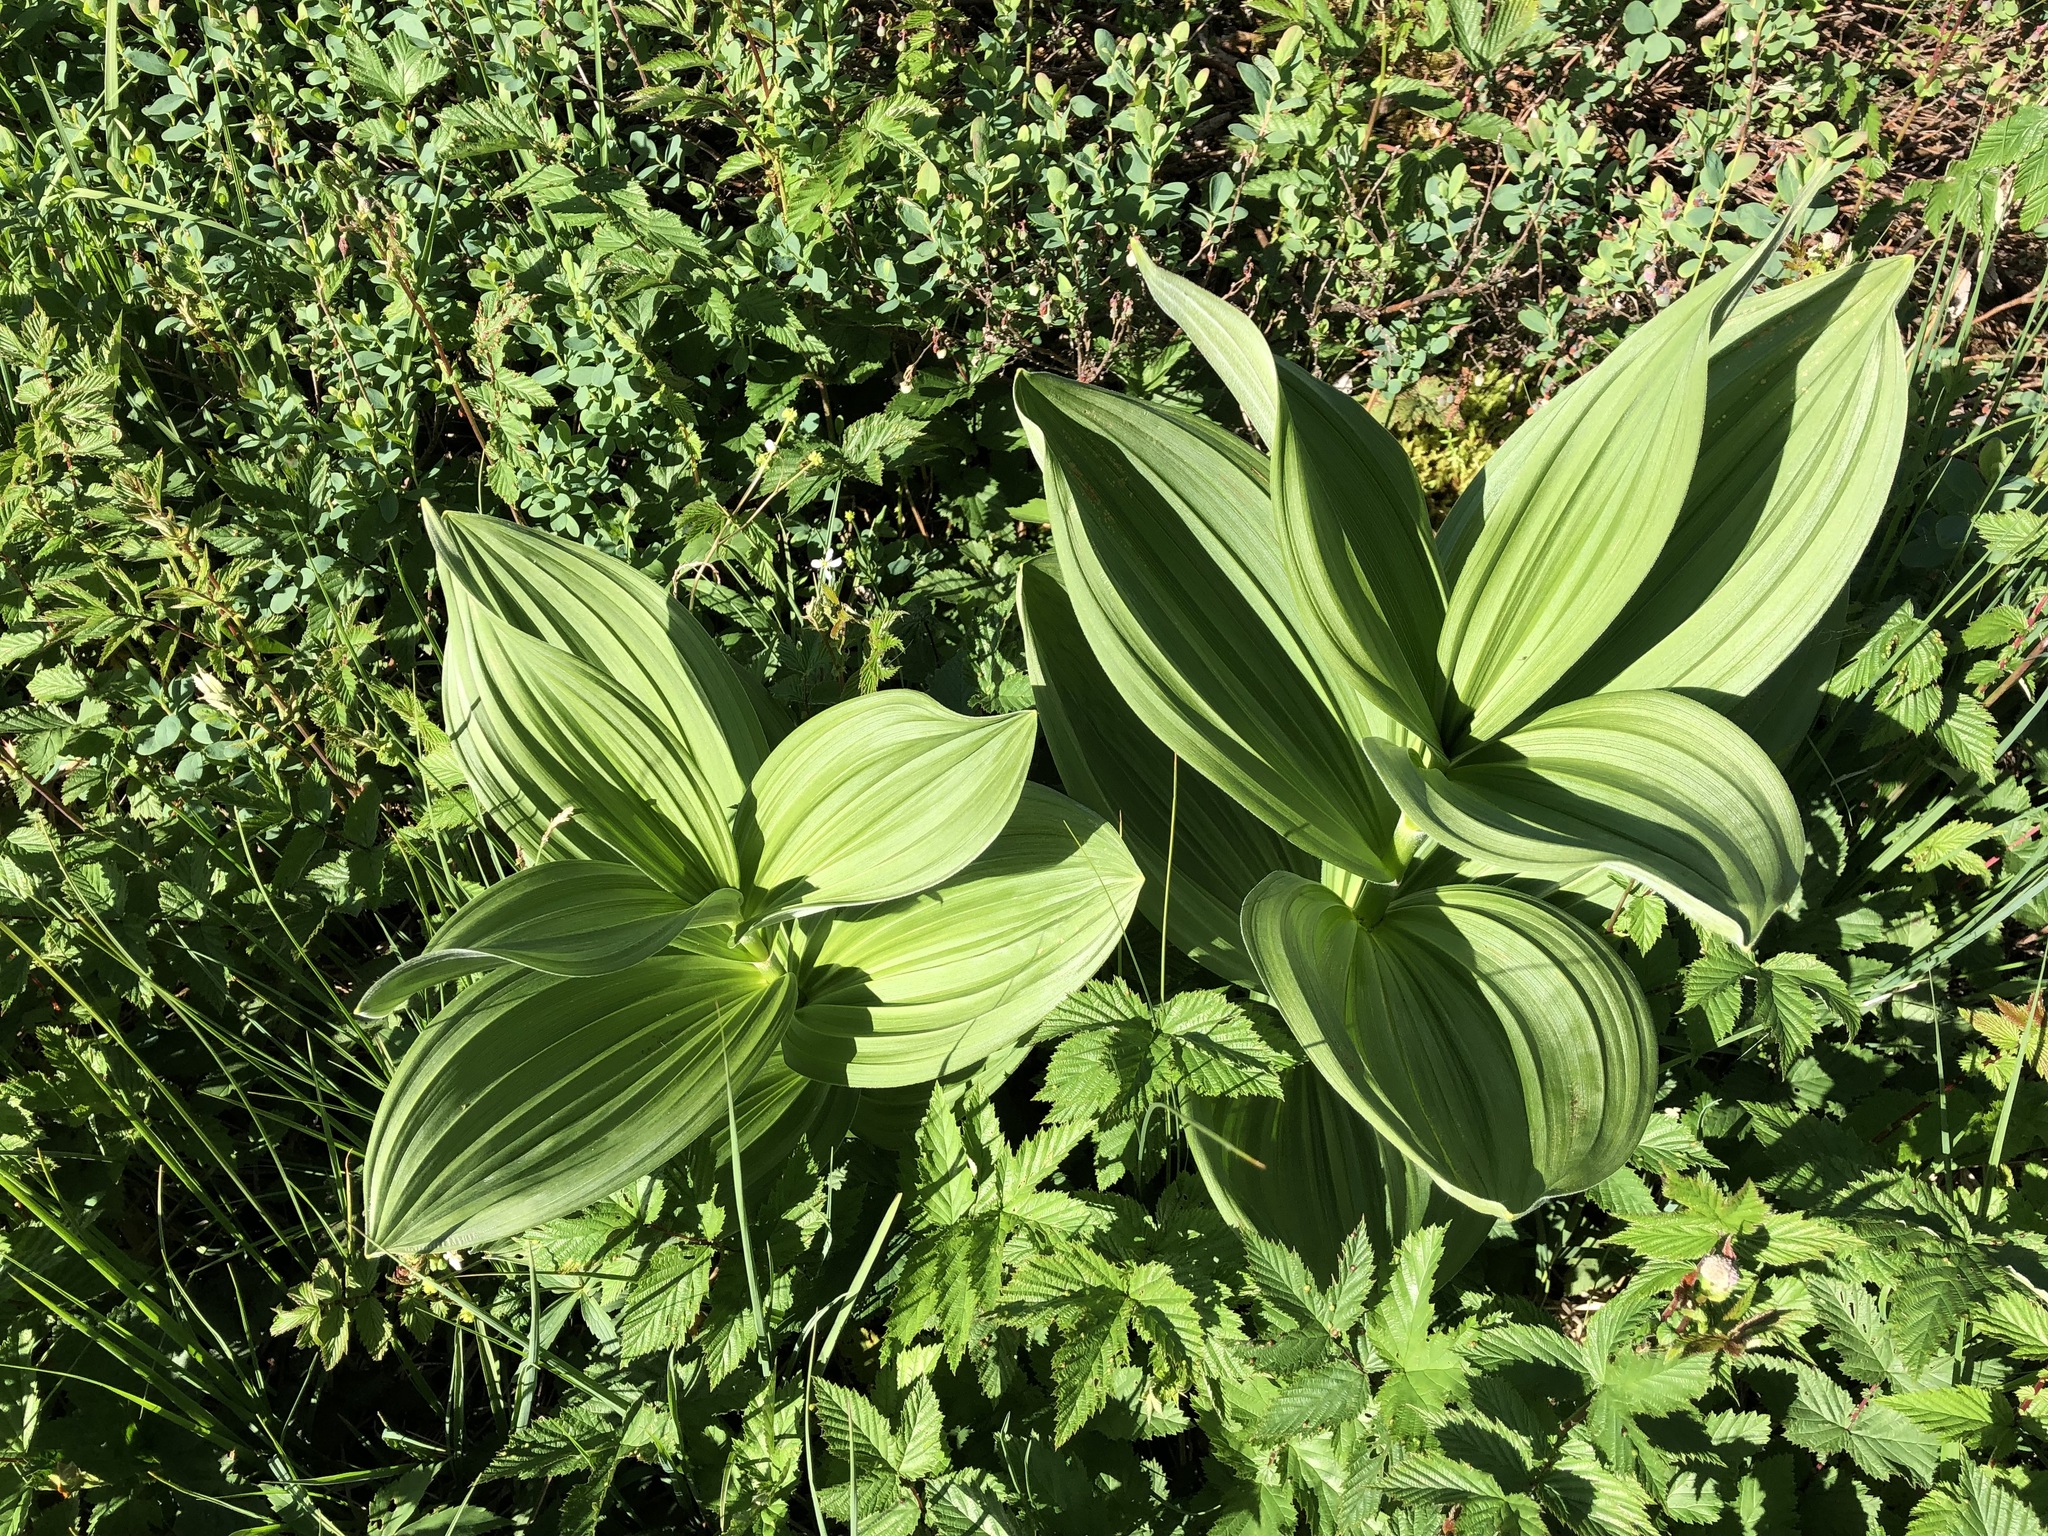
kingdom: Plantae
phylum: Tracheophyta
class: Liliopsida
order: Liliales
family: Melanthiaceae
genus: Veratrum
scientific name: Veratrum album
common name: White veratrum
